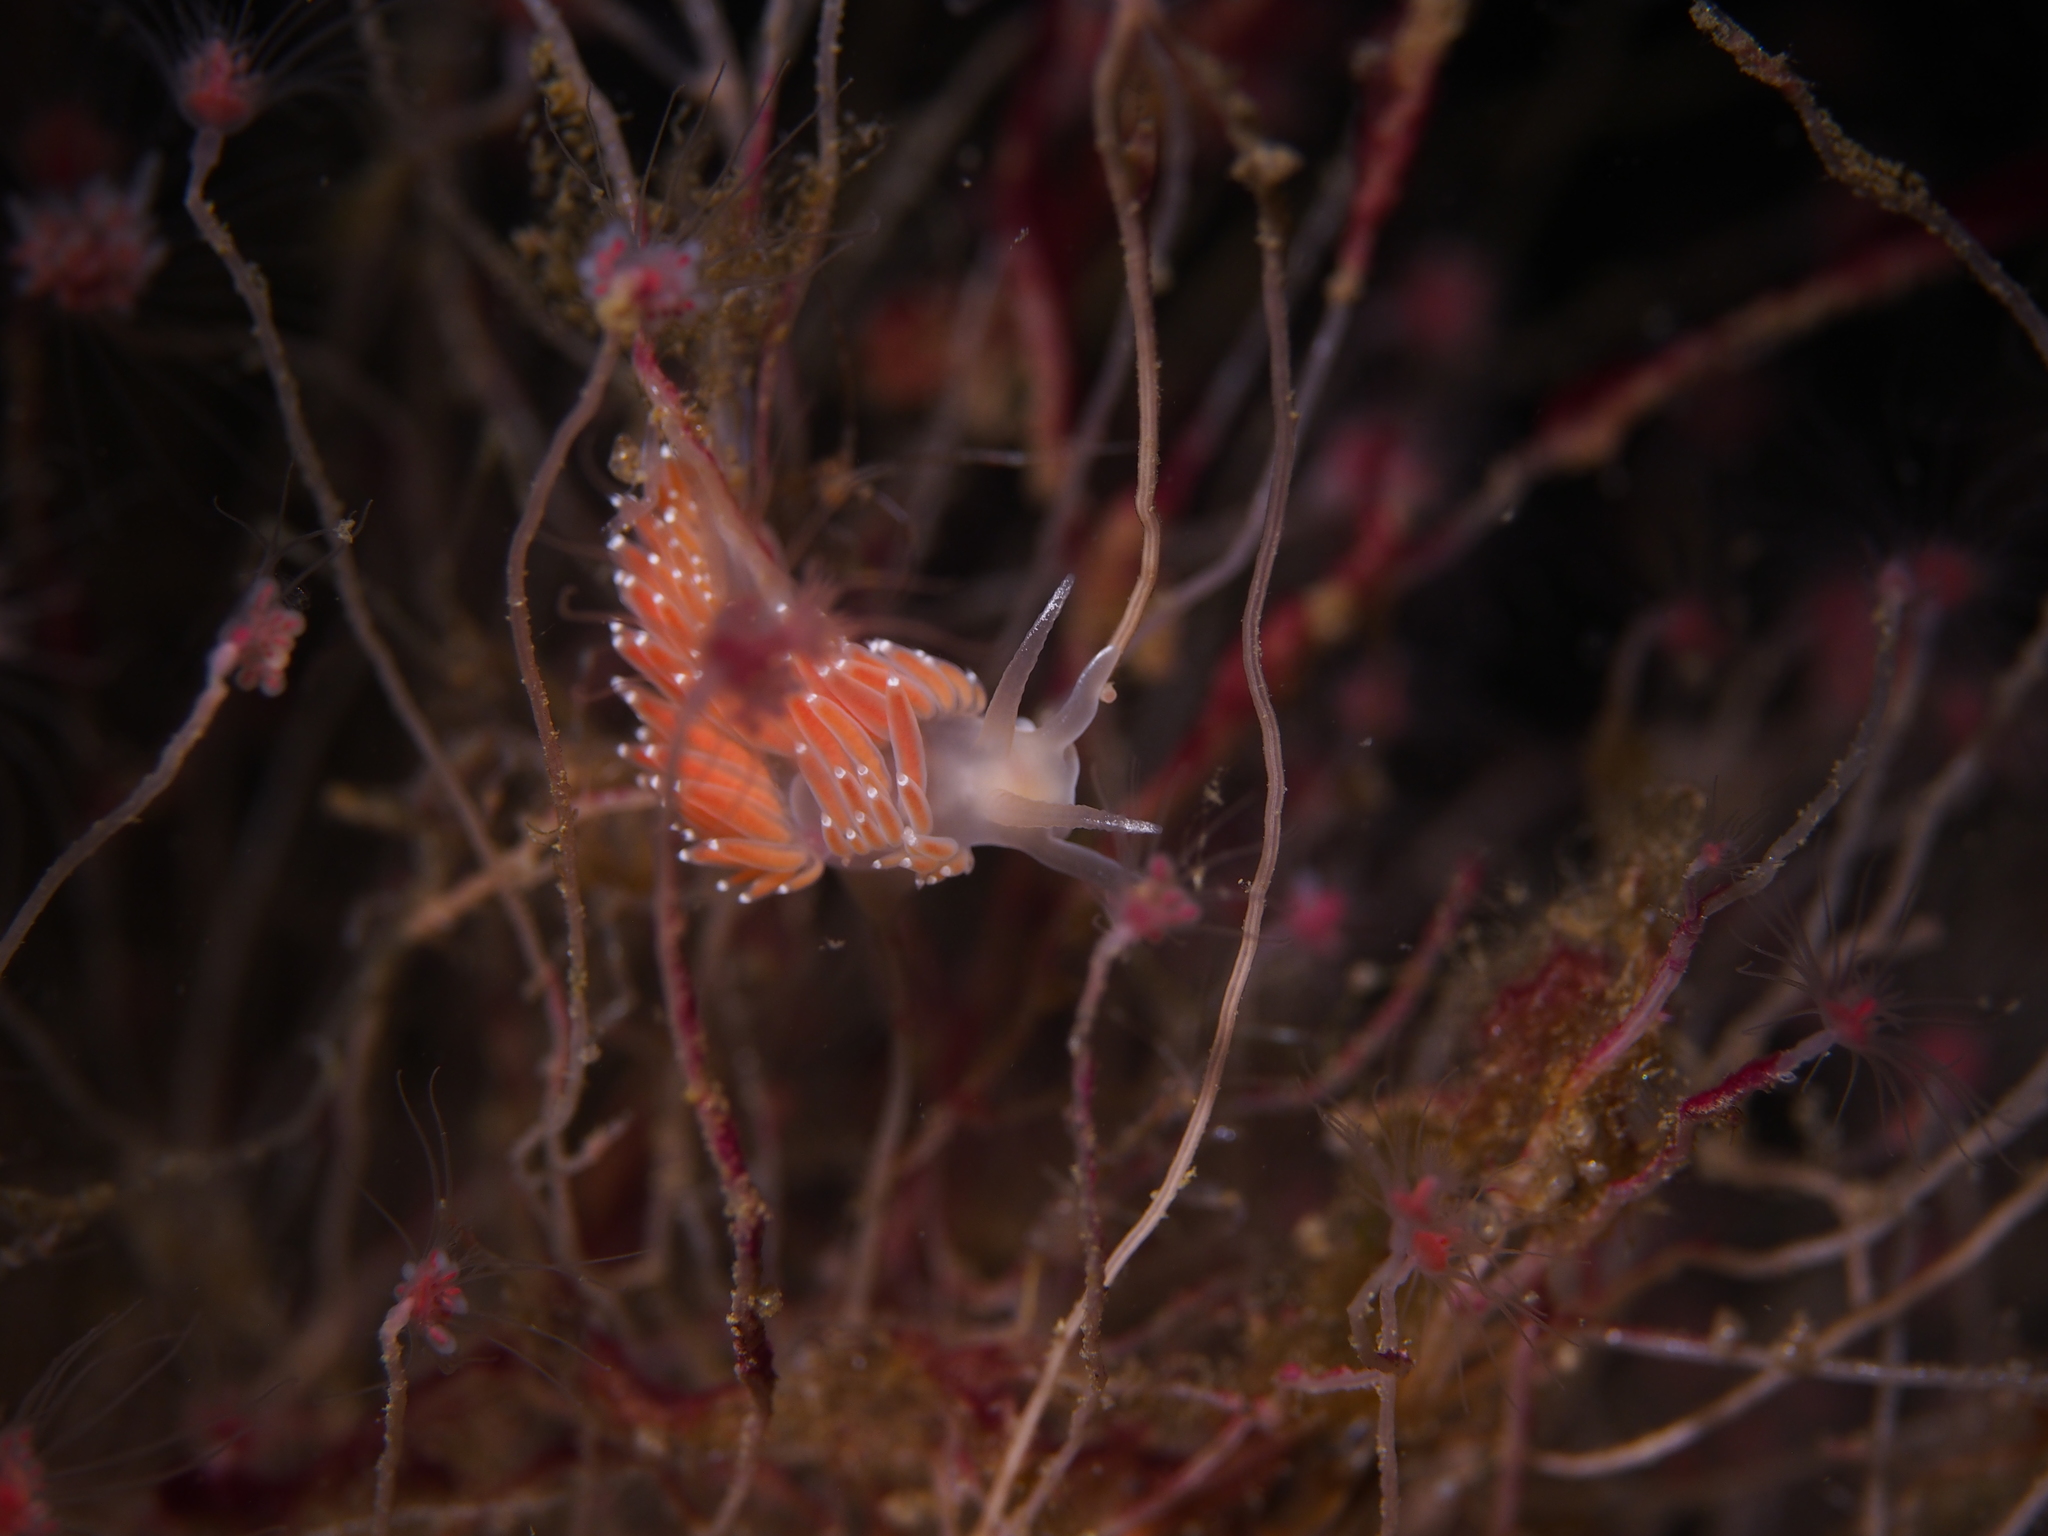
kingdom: Animalia
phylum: Mollusca
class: Gastropoda
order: Nudibranchia
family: Coryphellidae
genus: Coryphella
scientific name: Coryphella verrucosa
